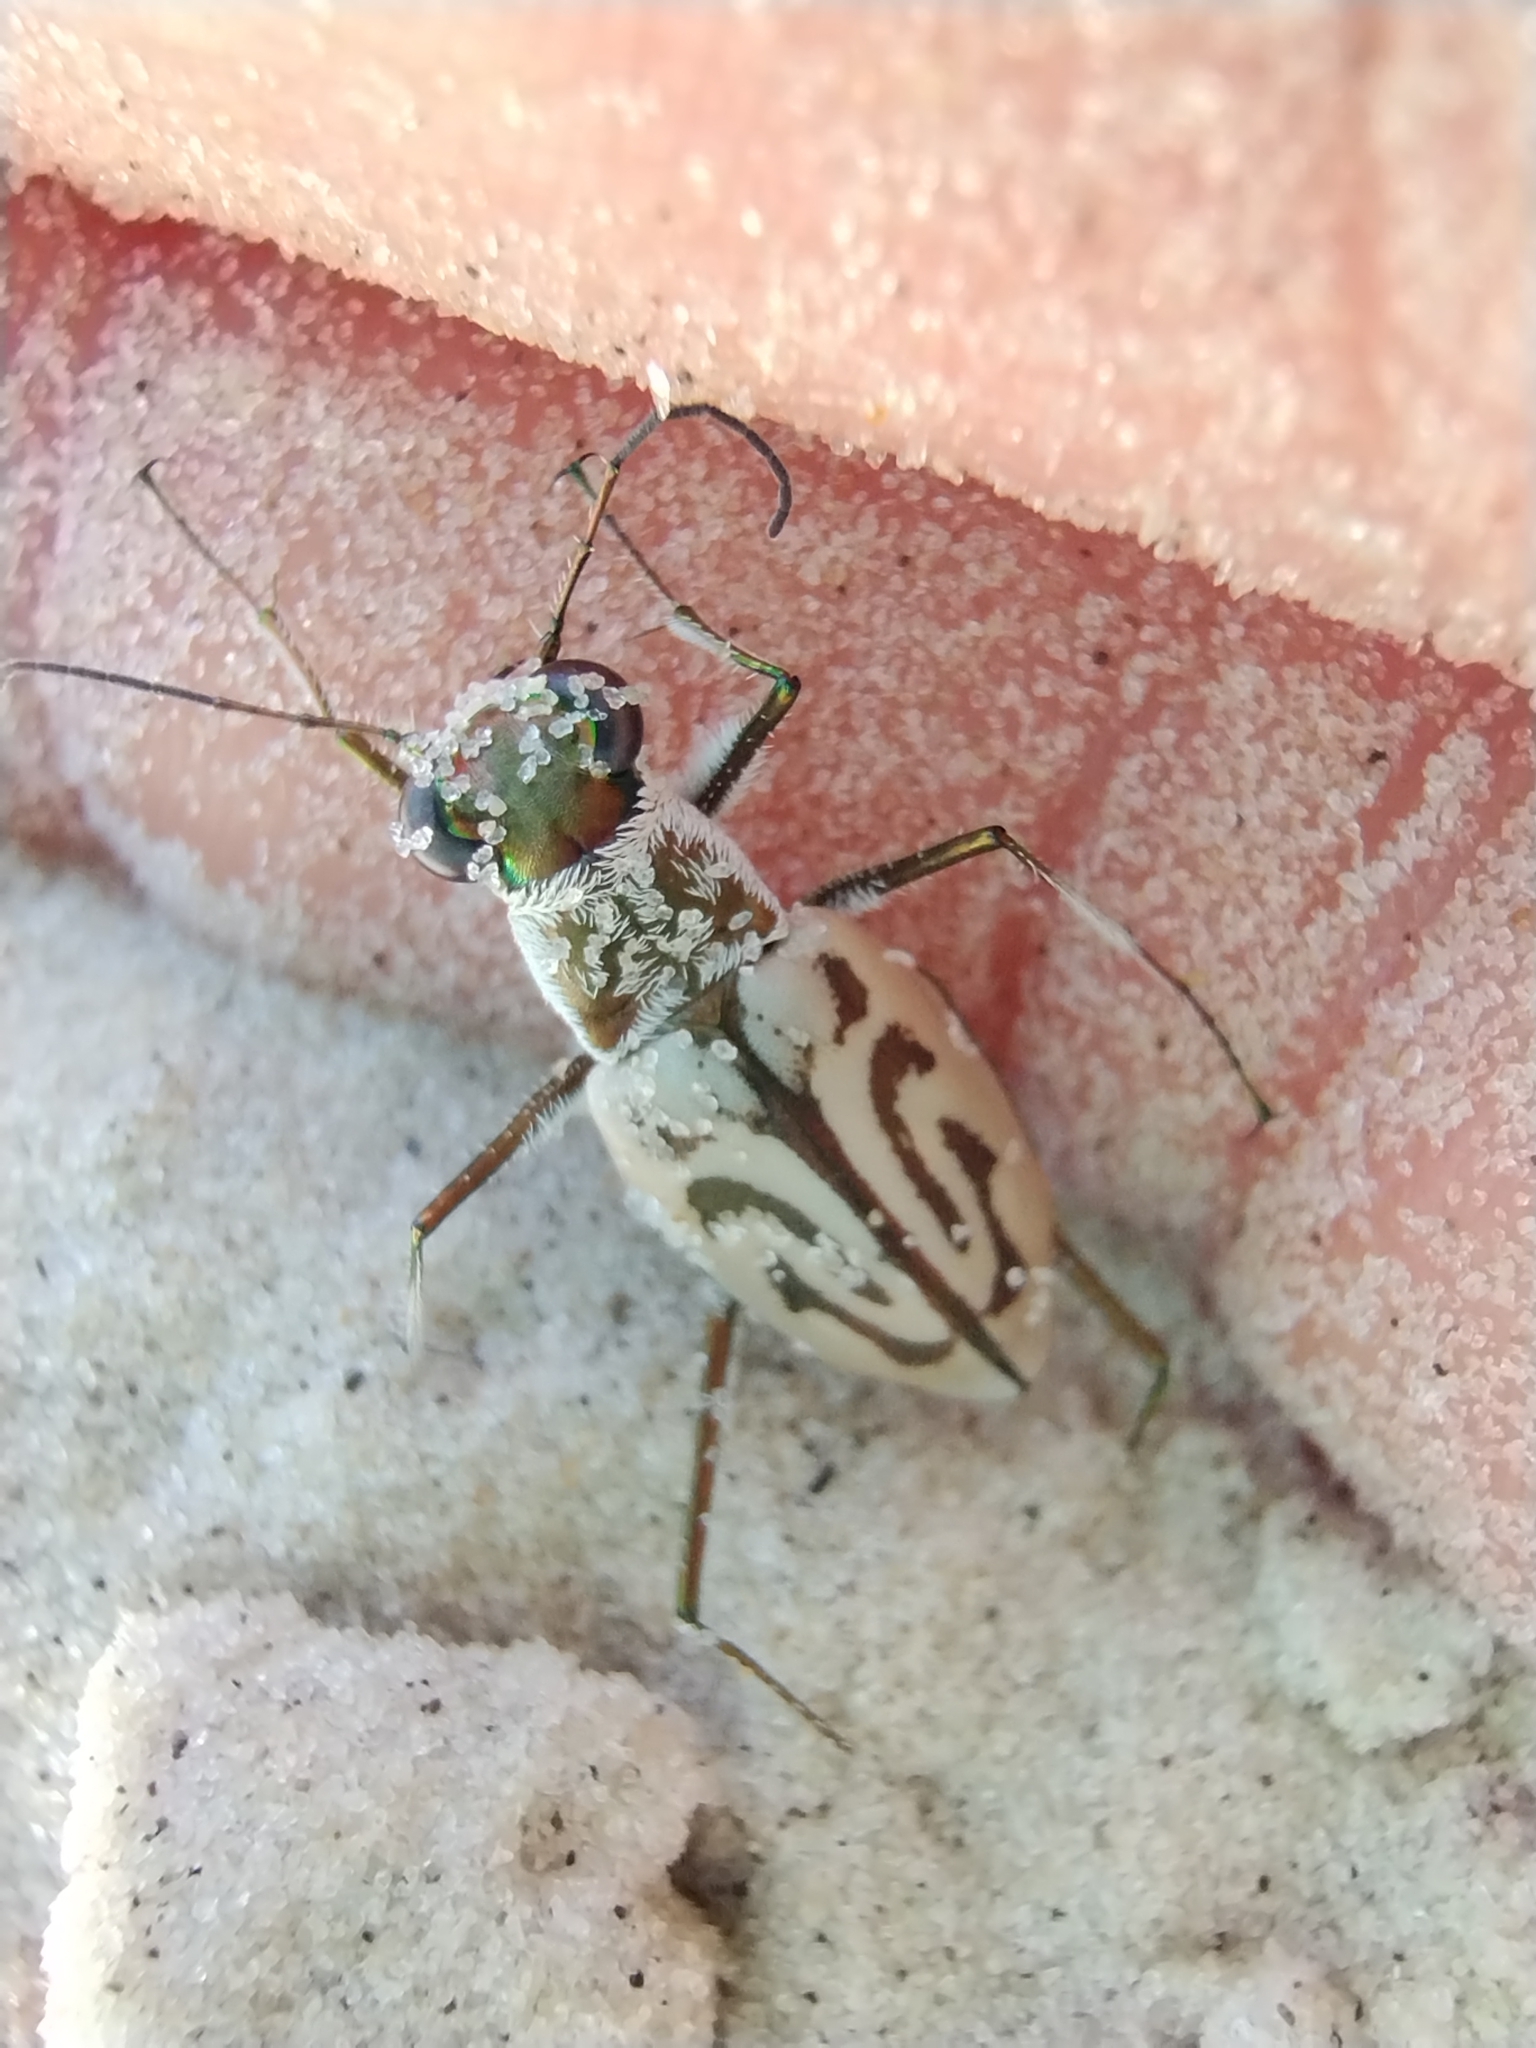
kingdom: Animalia
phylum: Arthropoda
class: Insecta
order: Coleoptera
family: Carabidae
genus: Habroscelimorpha
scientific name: Habroscelimorpha dorsalis
